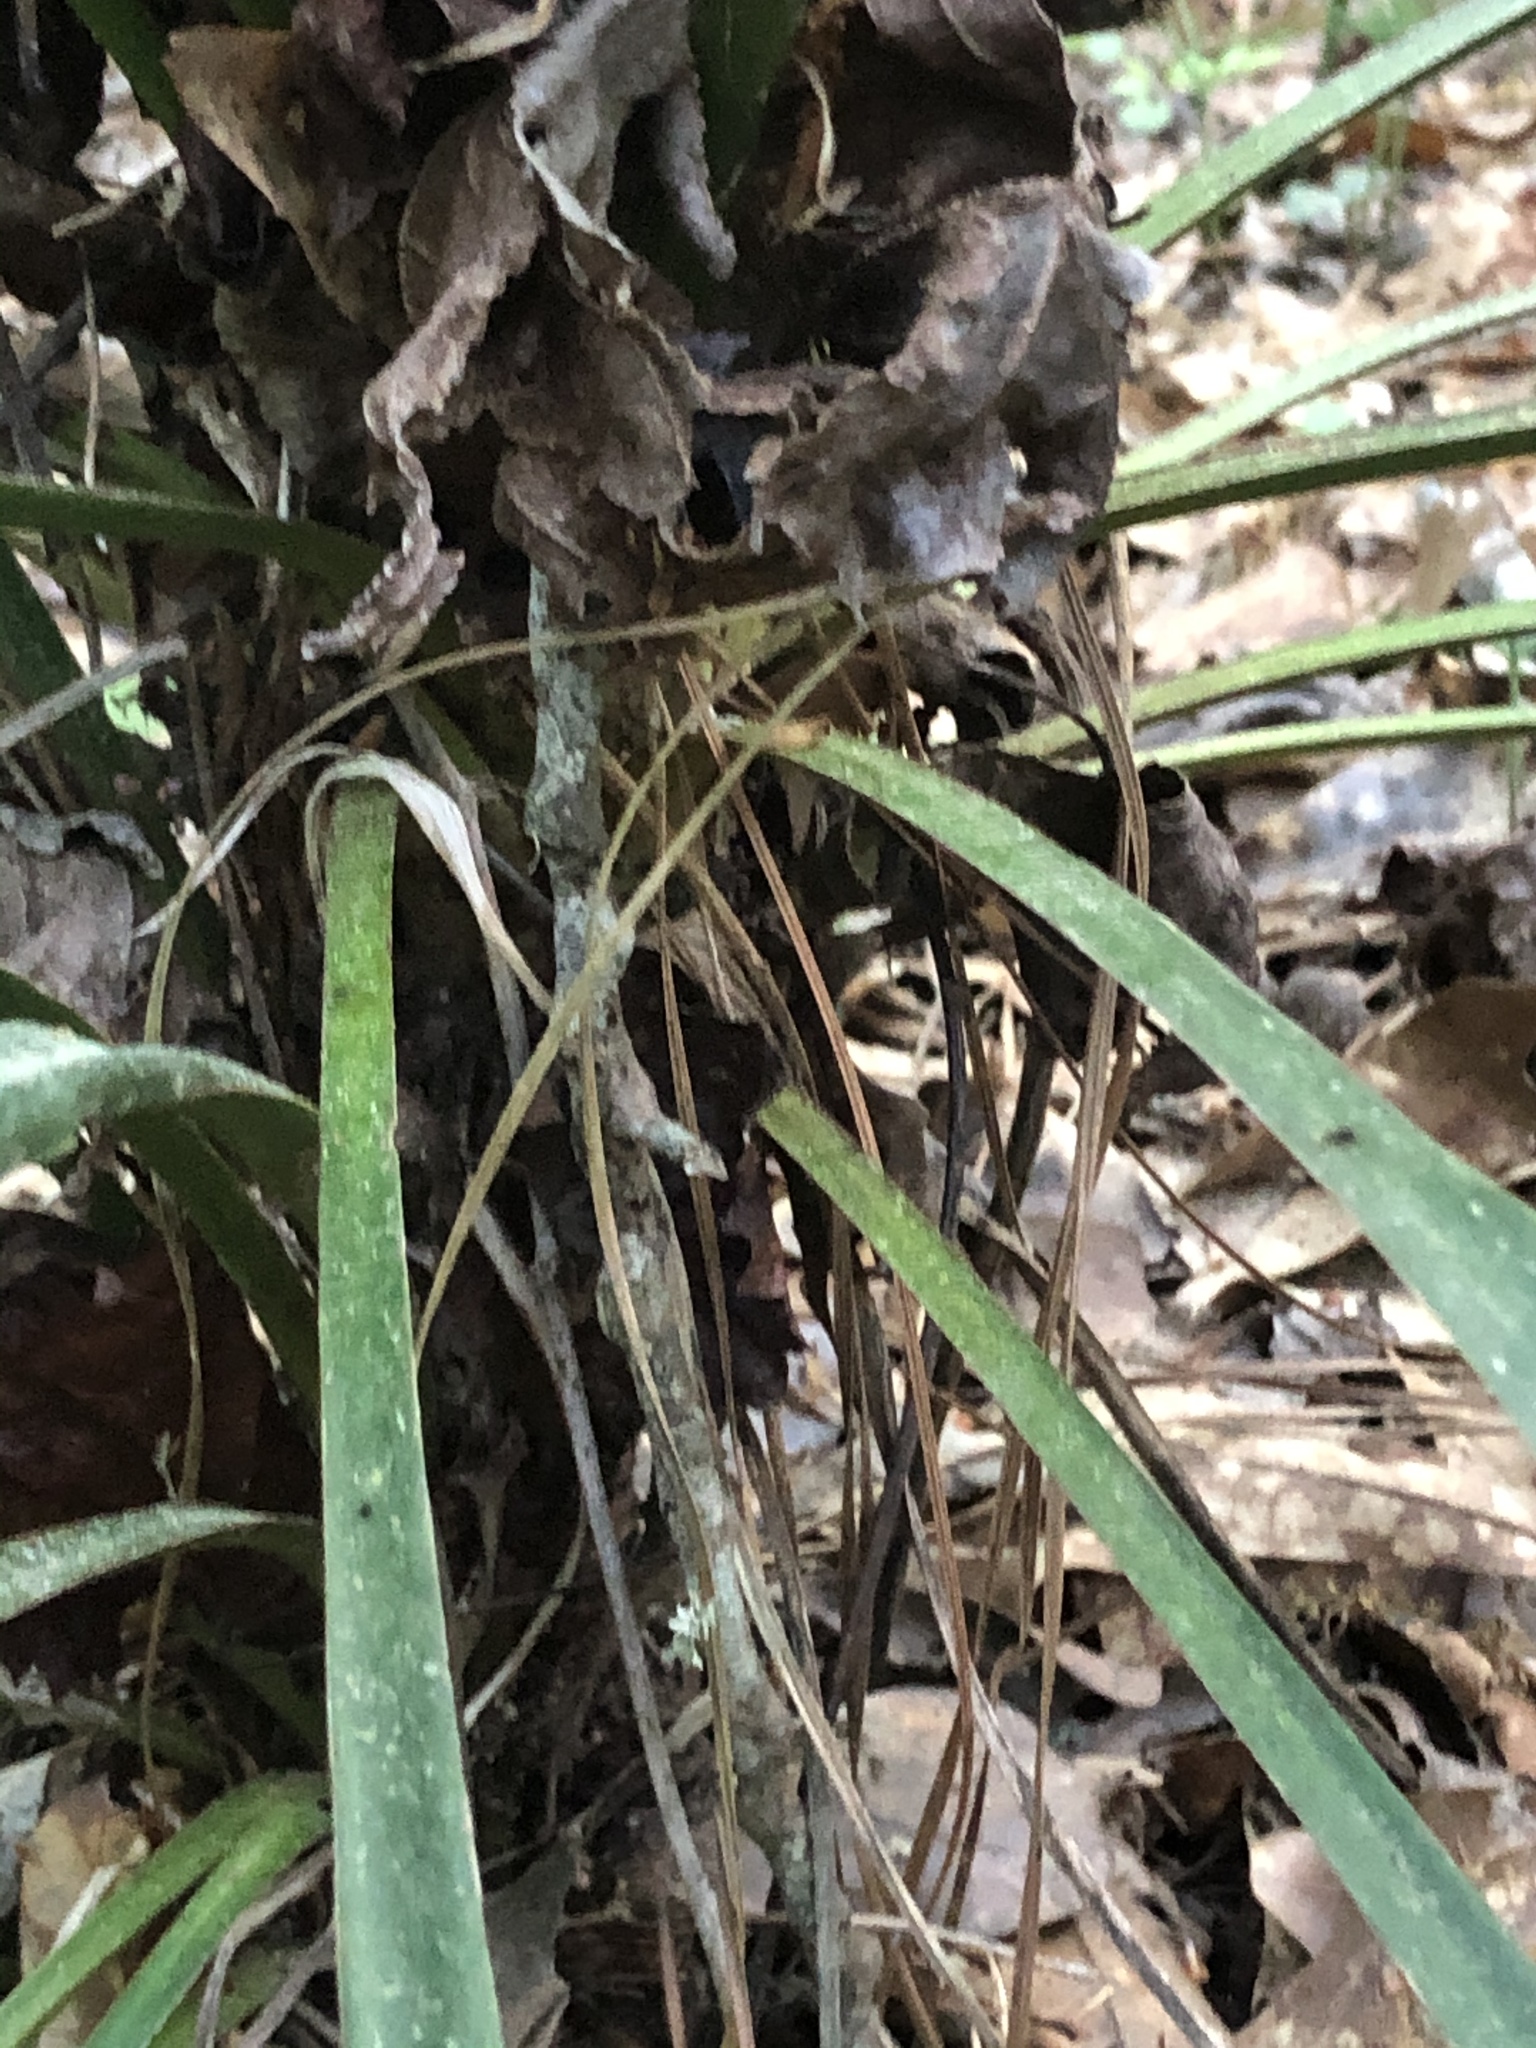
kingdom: Plantae
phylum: Tracheophyta
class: Liliopsida
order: Asparagales
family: Asparagaceae
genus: Yucca
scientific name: Yucca gloriosa
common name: Spanish-dagger
